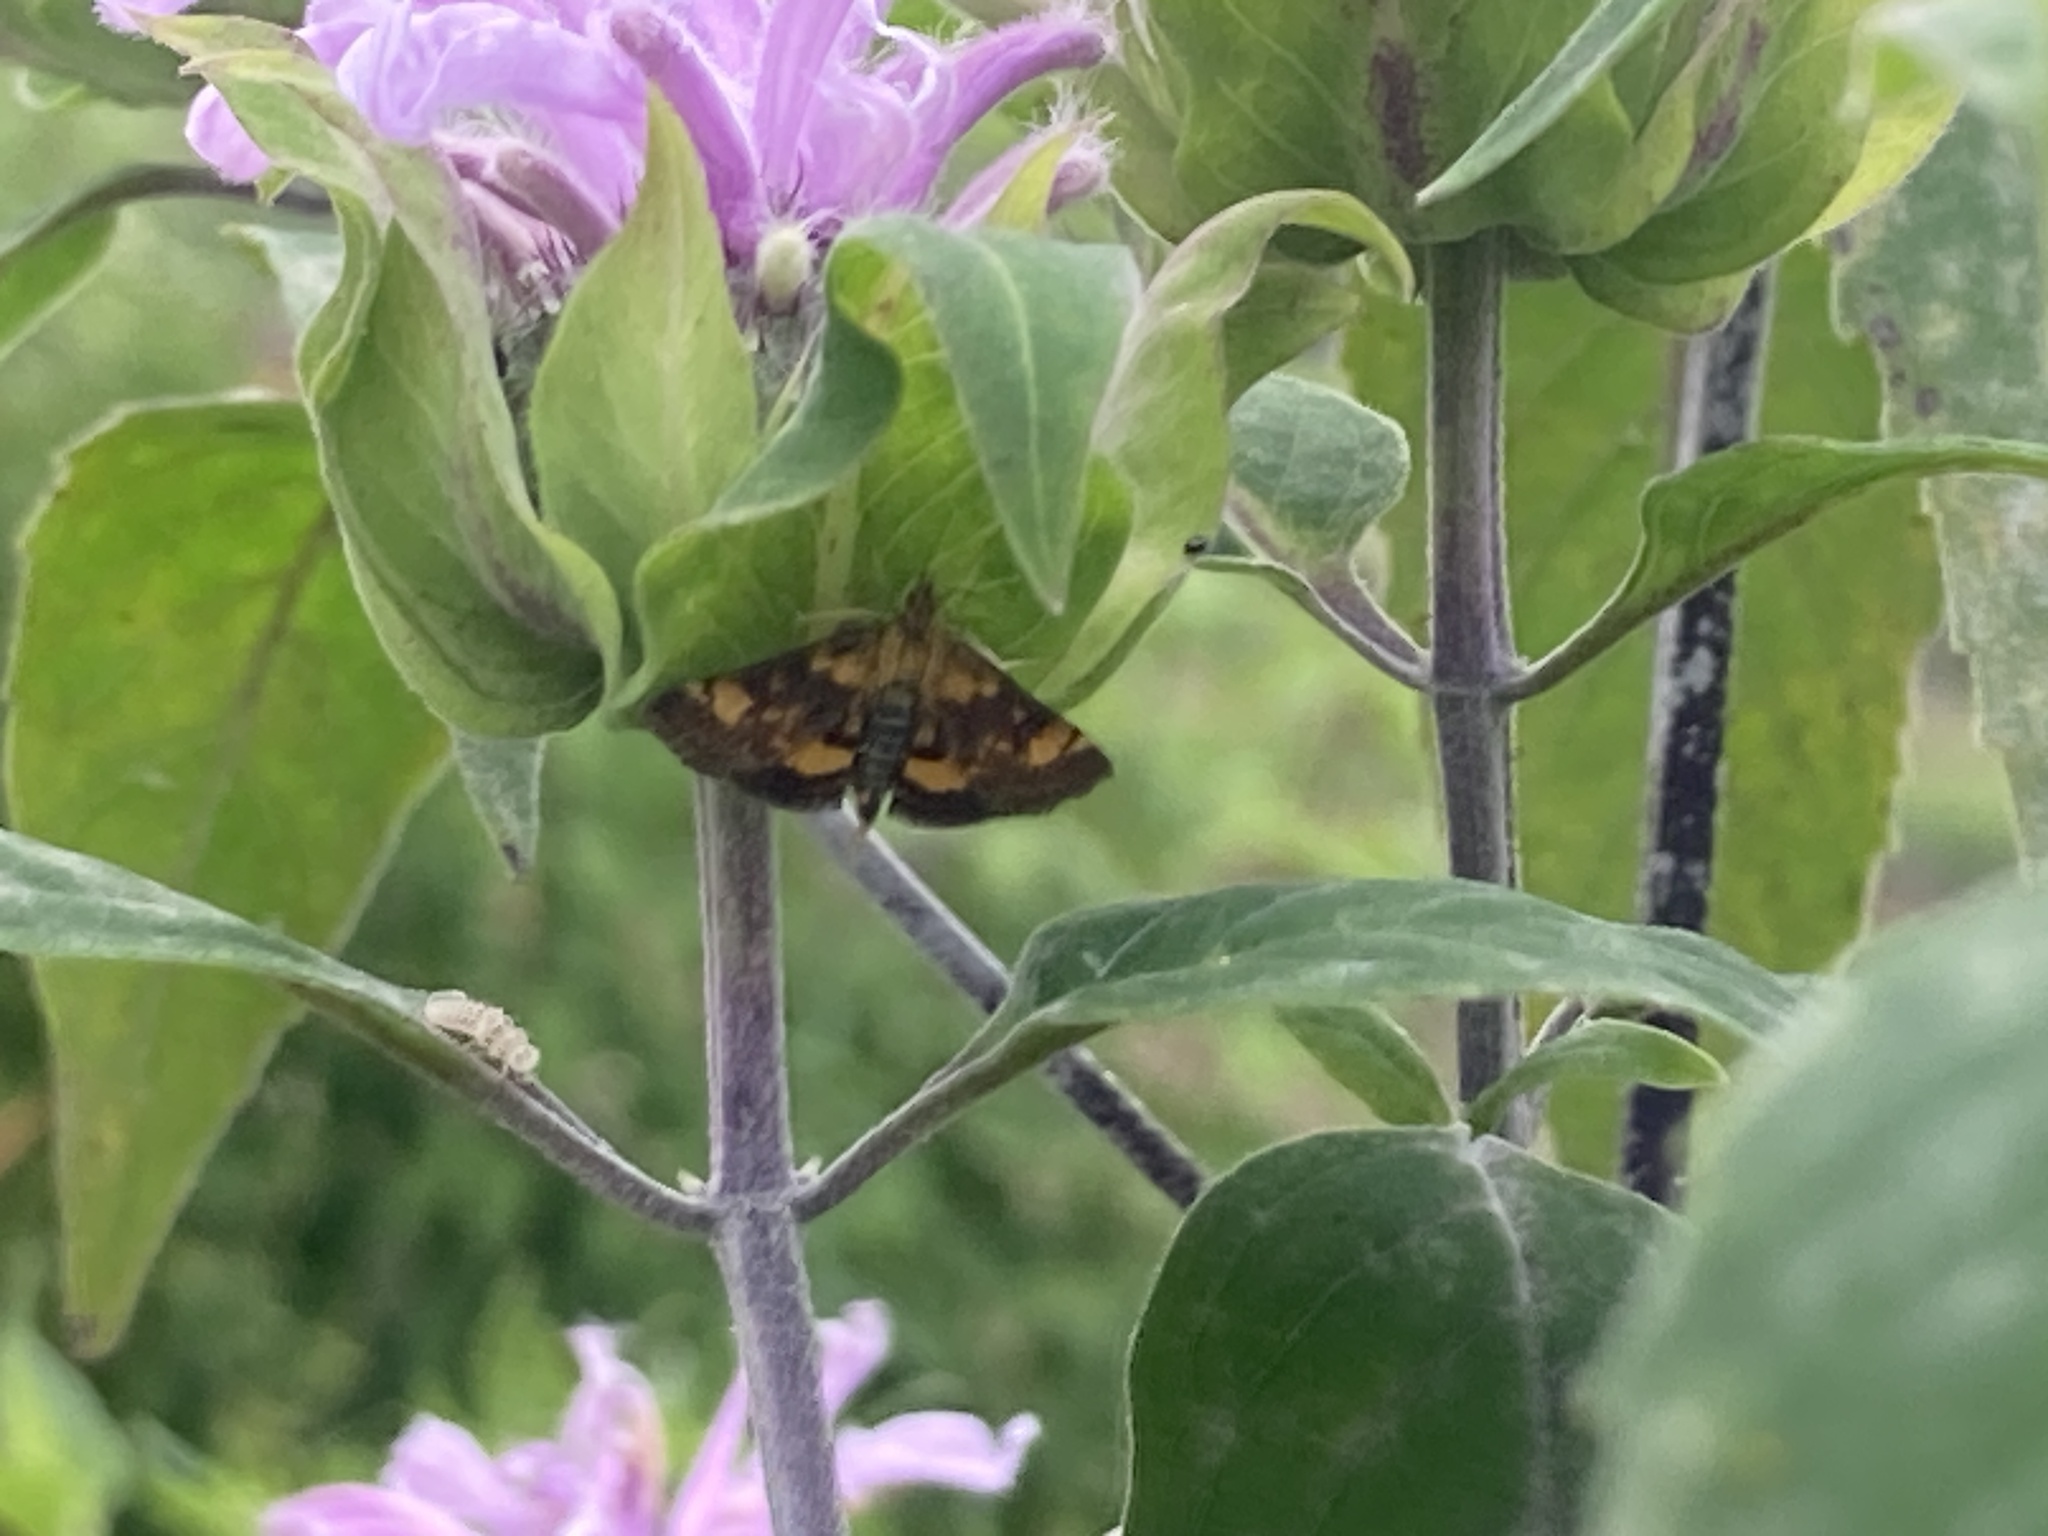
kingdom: Animalia
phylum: Arthropoda
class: Insecta
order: Lepidoptera
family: Crambidae
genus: Pyrausta
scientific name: Pyrausta orphisalis
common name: Orange mint moth
